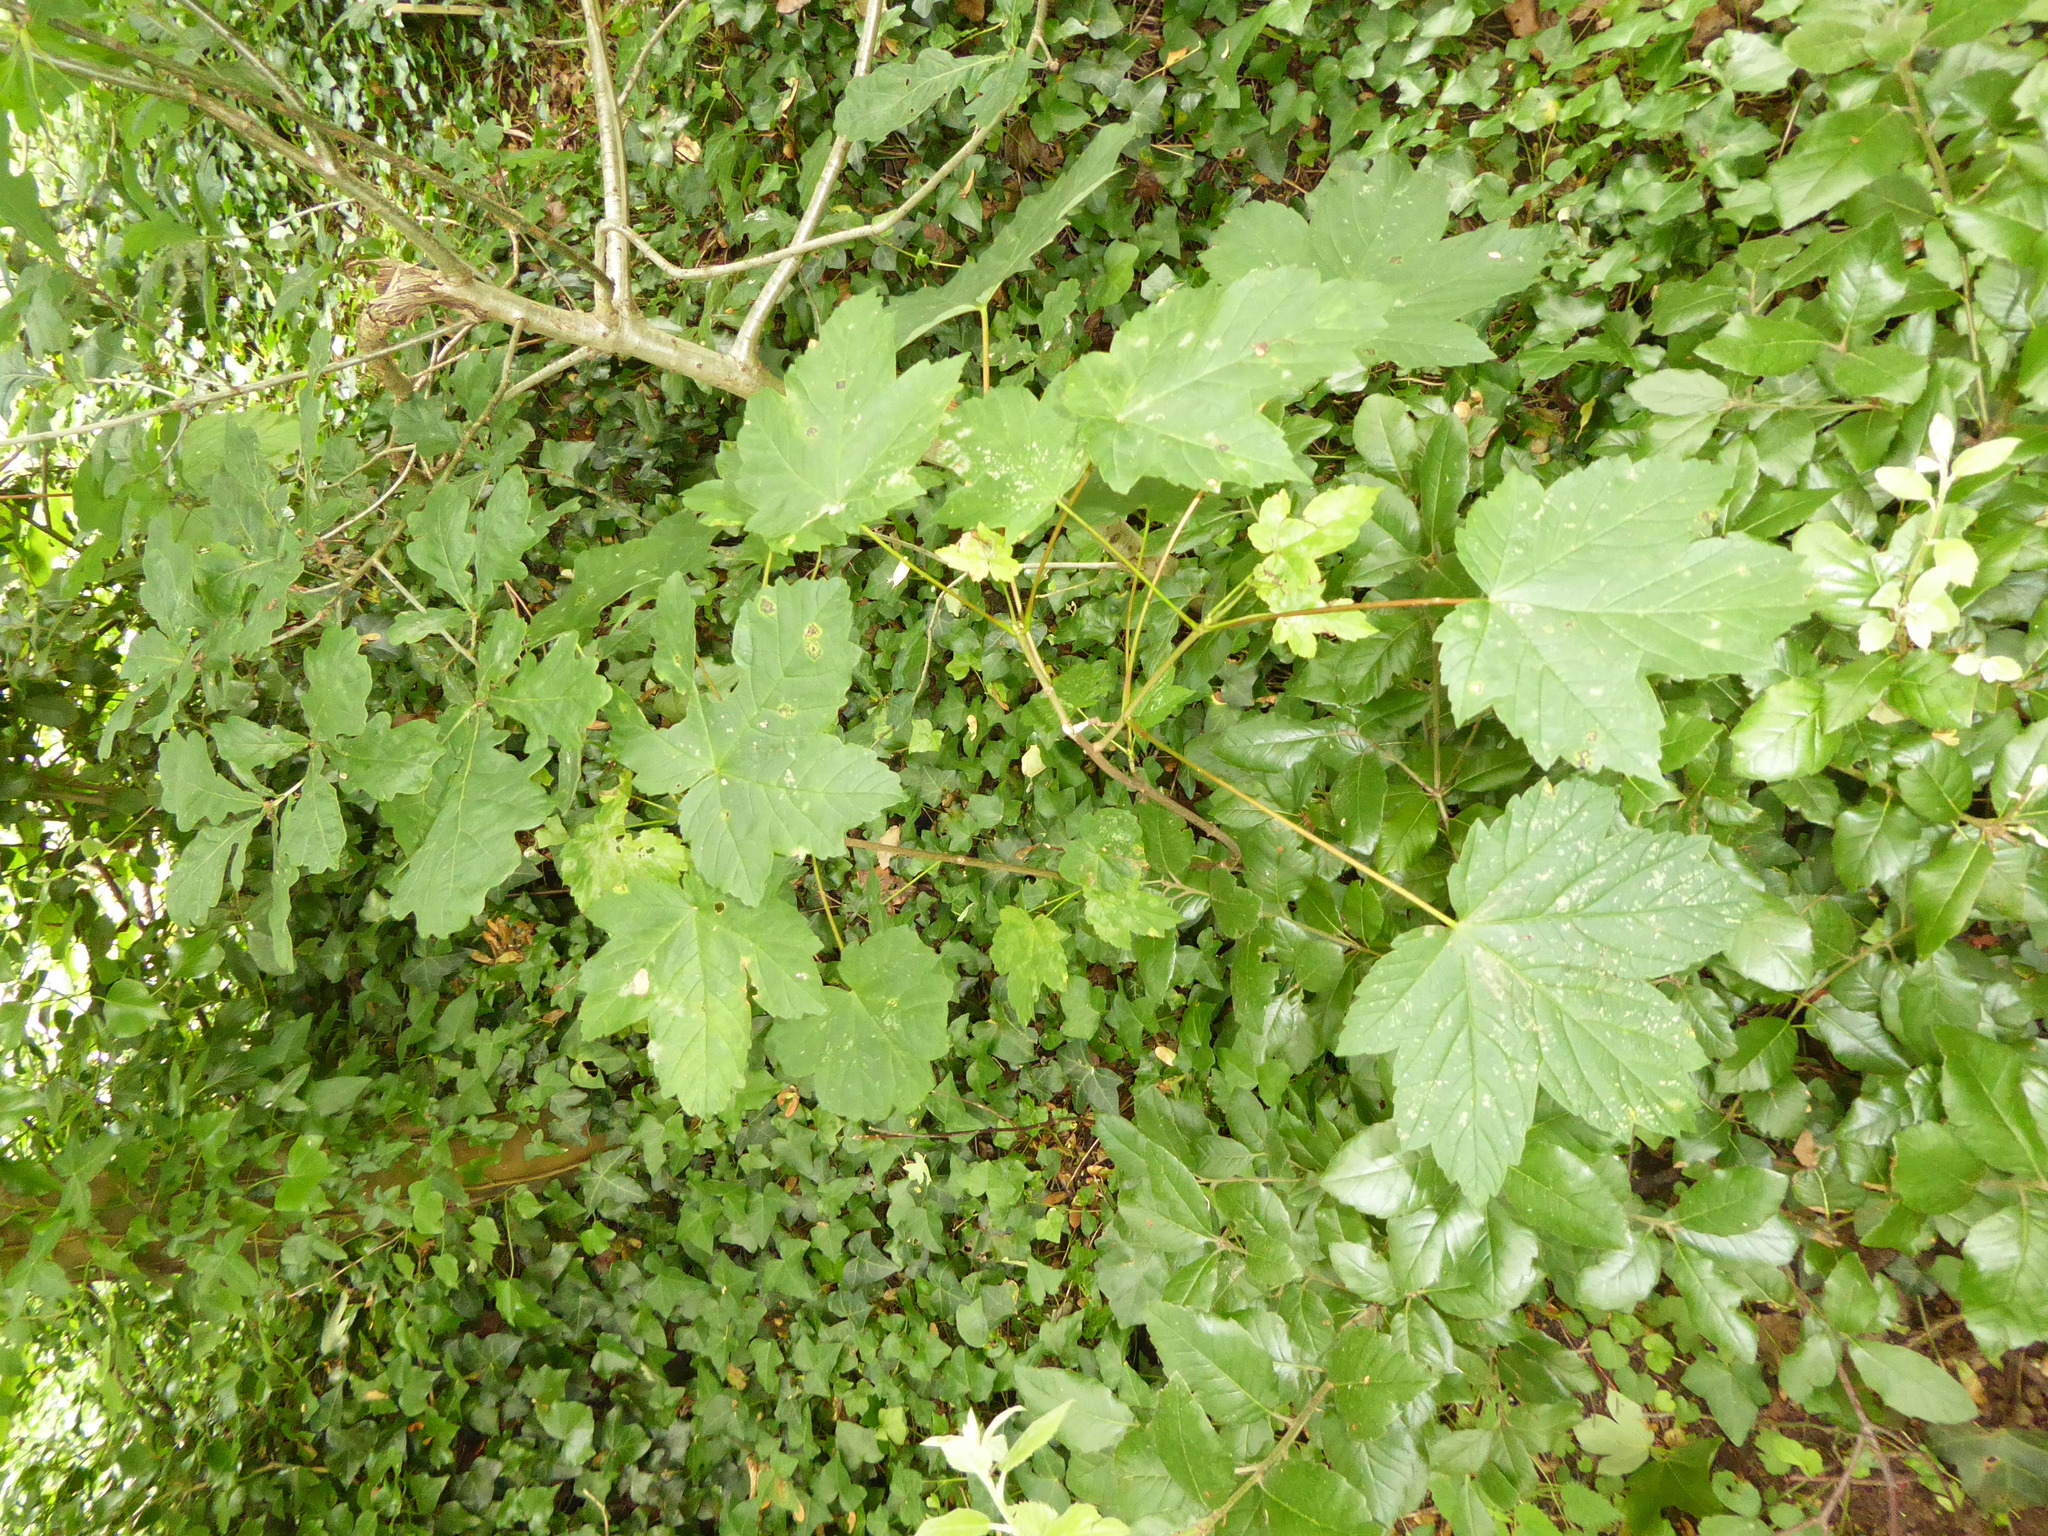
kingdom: Plantae
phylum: Tracheophyta
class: Magnoliopsida
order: Sapindales
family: Sapindaceae
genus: Acer
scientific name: Acer pseudoplatanus
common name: Sycamore
